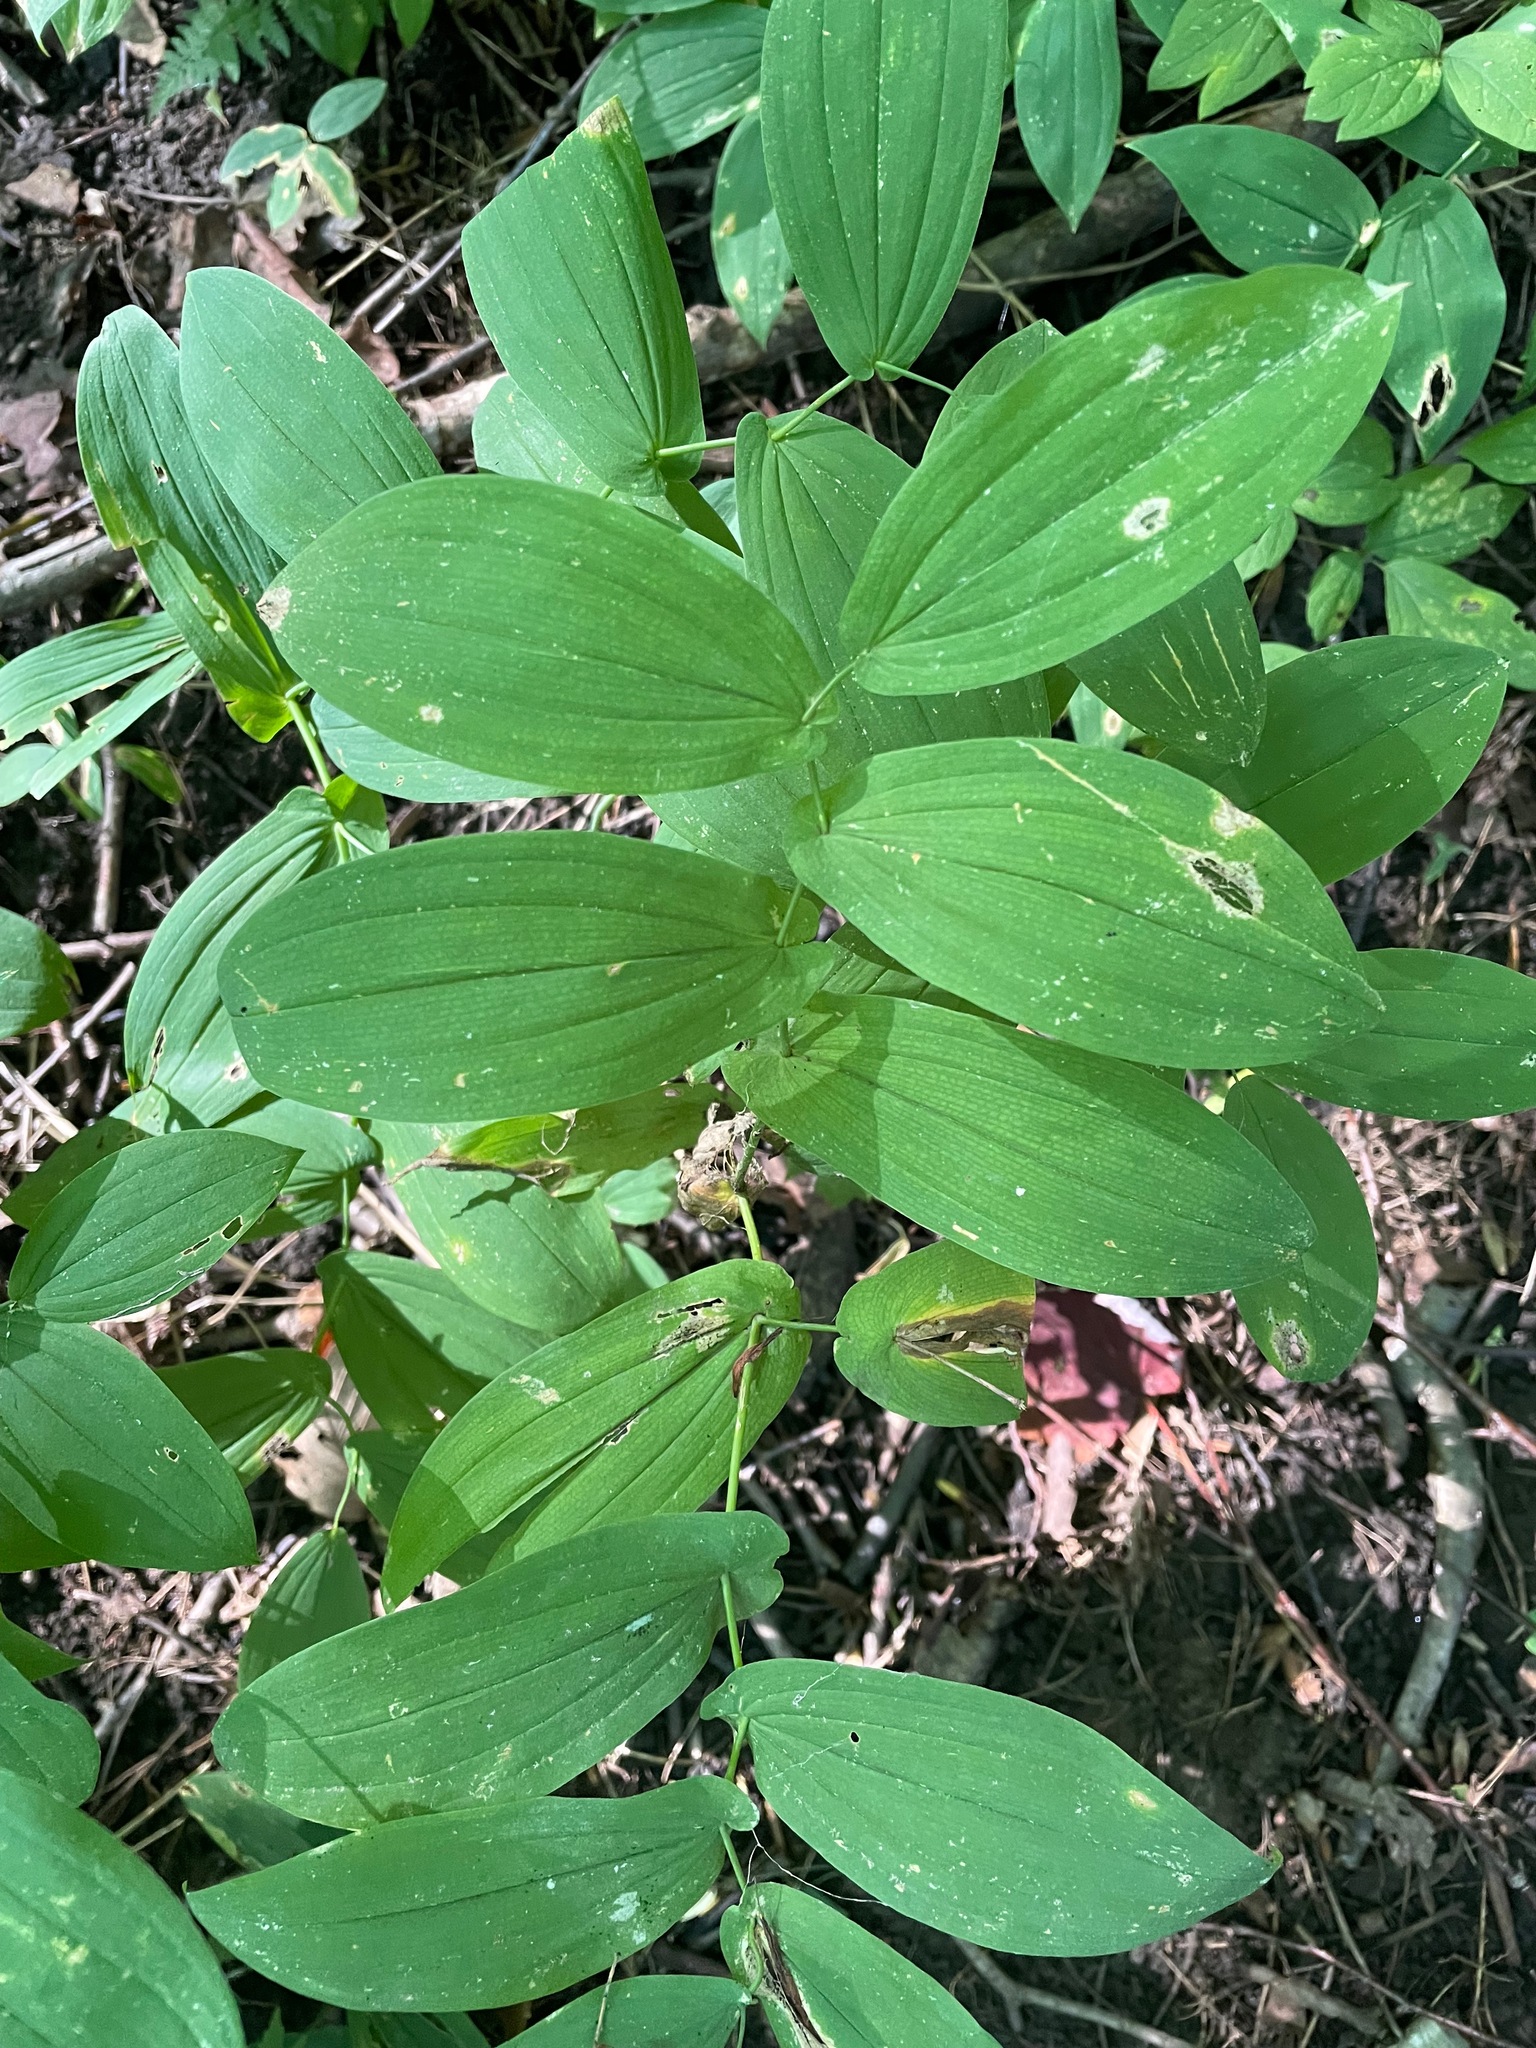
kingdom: Plantae
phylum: Tracheophyta
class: Liliopsida
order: Liliales
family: Colchicaceae
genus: Uvularia
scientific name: Uvularia grandiflora
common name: Bellwort
